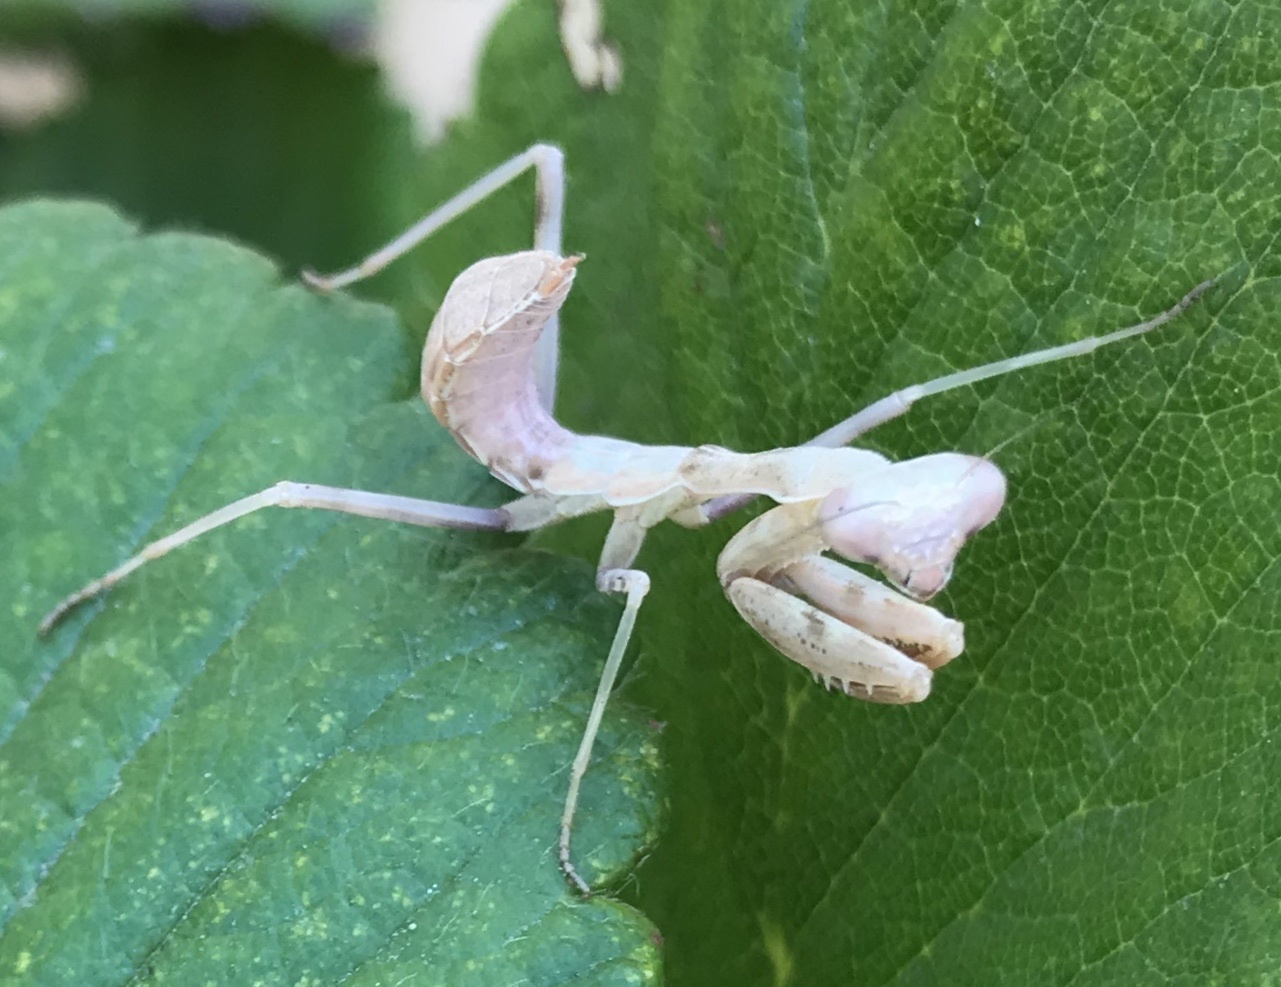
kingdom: Animalia
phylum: Arthropoda
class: Insecta
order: Mantodea
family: Mantidae
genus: Stagmomantis
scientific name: Stagmomantis californica
